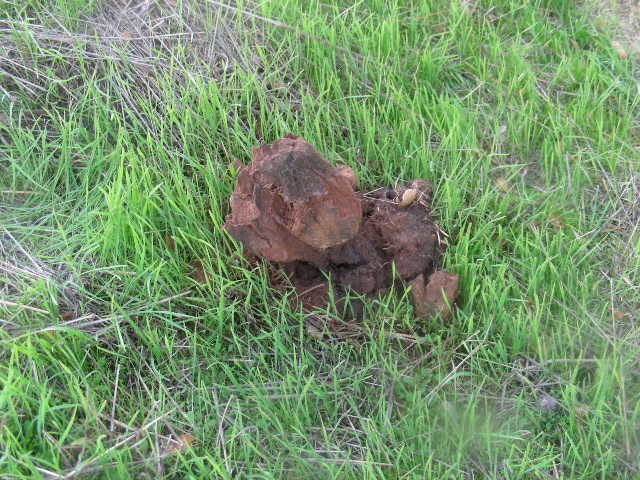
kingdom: Fungi
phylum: Basidiomycota
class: Agaricomycetes
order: Boletales
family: Sclerodermataceae
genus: Pisolithus
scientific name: Pisolithus arhizus
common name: Dyeball
